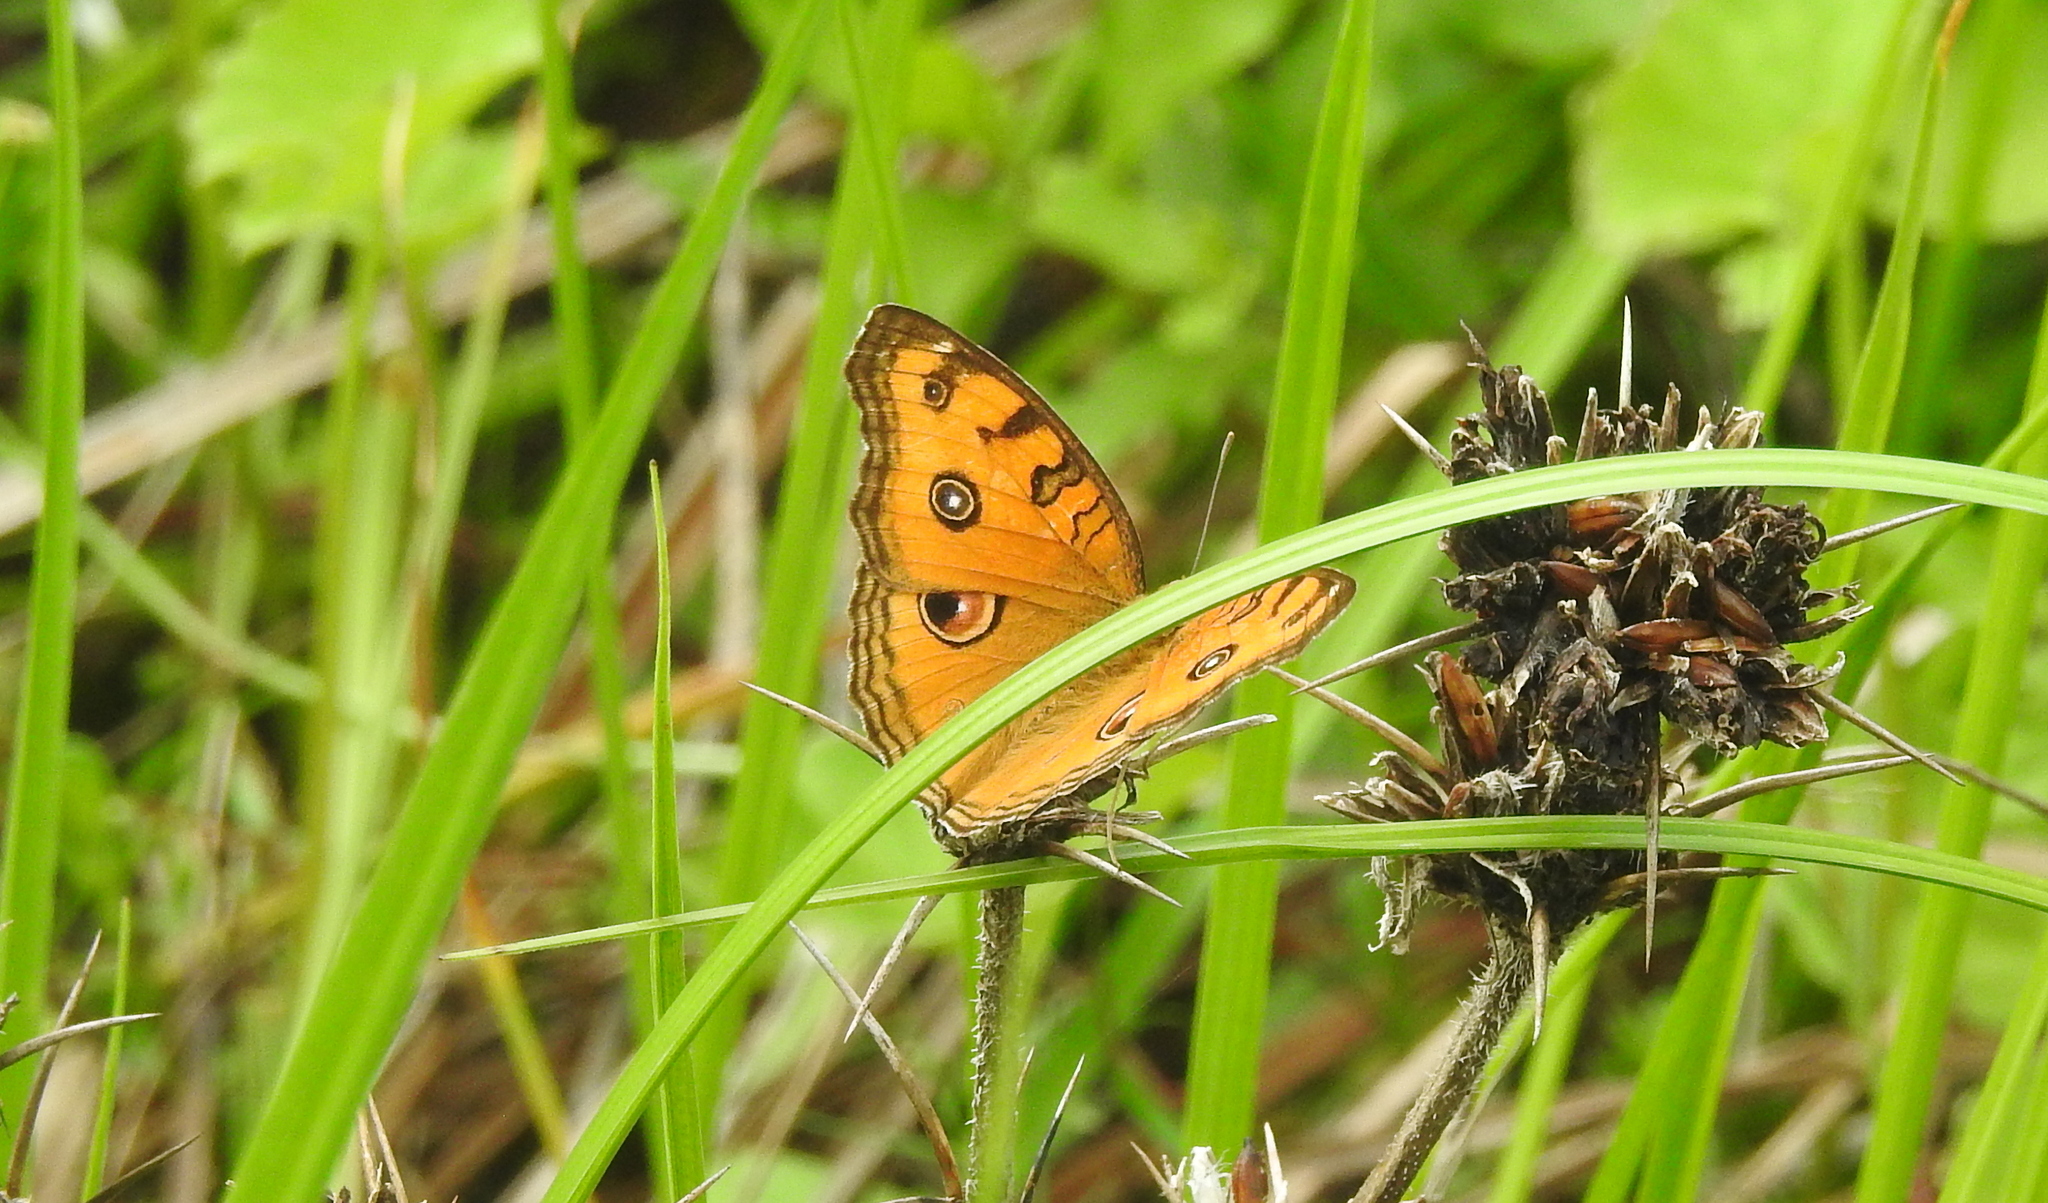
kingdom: Animalia
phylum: Arthropoda
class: Insecta
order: Lepidoptera
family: Nymphalidae
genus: Junonia
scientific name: Junonia almana
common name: Peacock pansy
